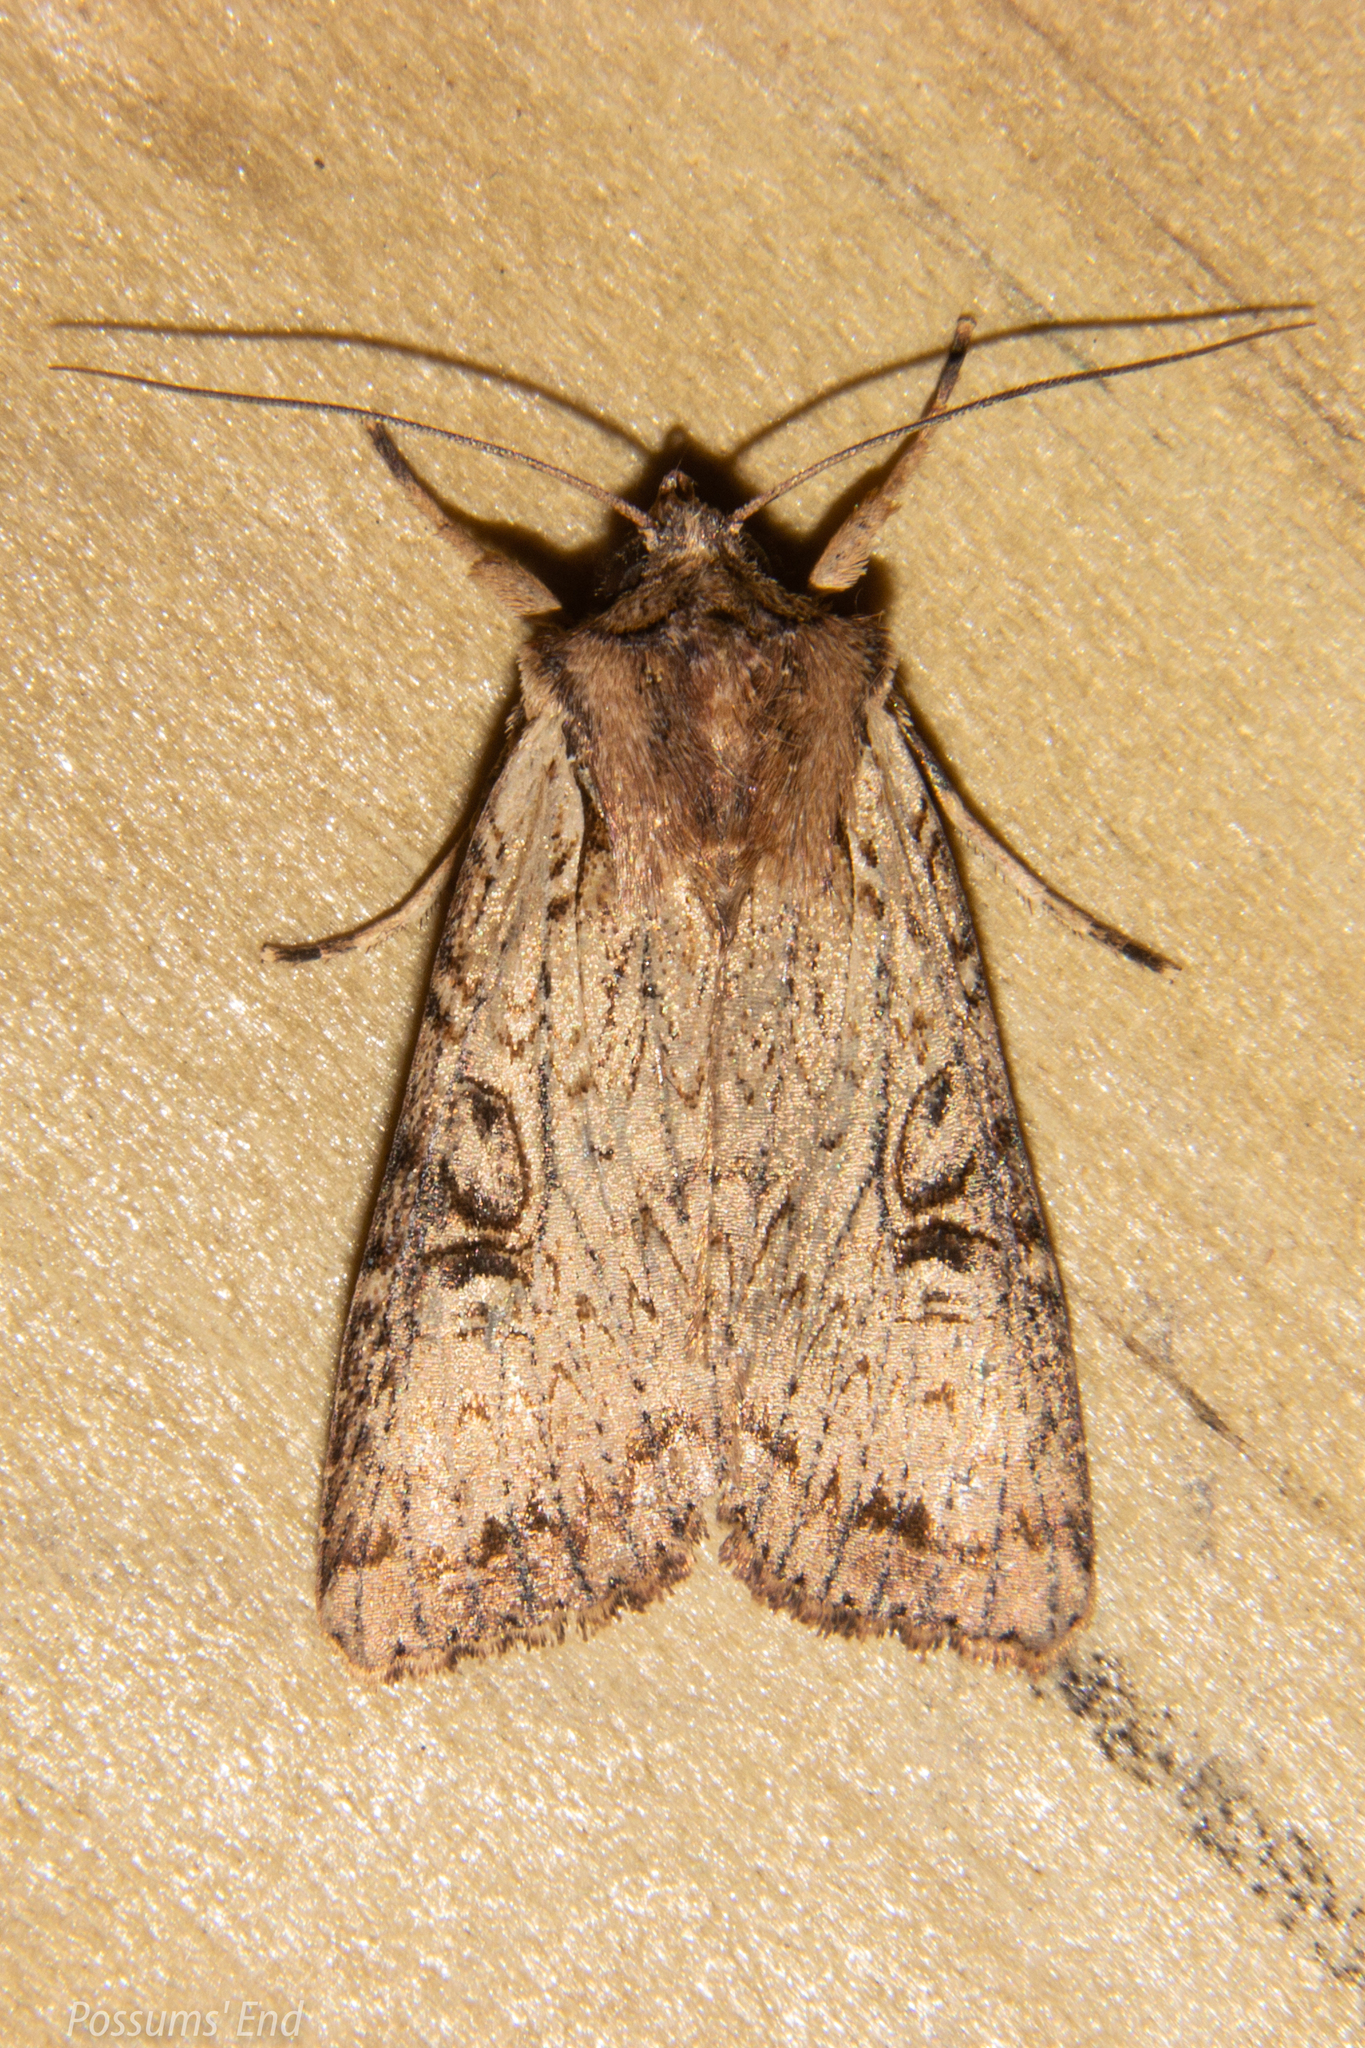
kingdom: Animalia
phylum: Arthropoda
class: Insecta
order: Lepidoptera
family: Noctuidae
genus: Ichneutica
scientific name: Ichneutica omoplaca
